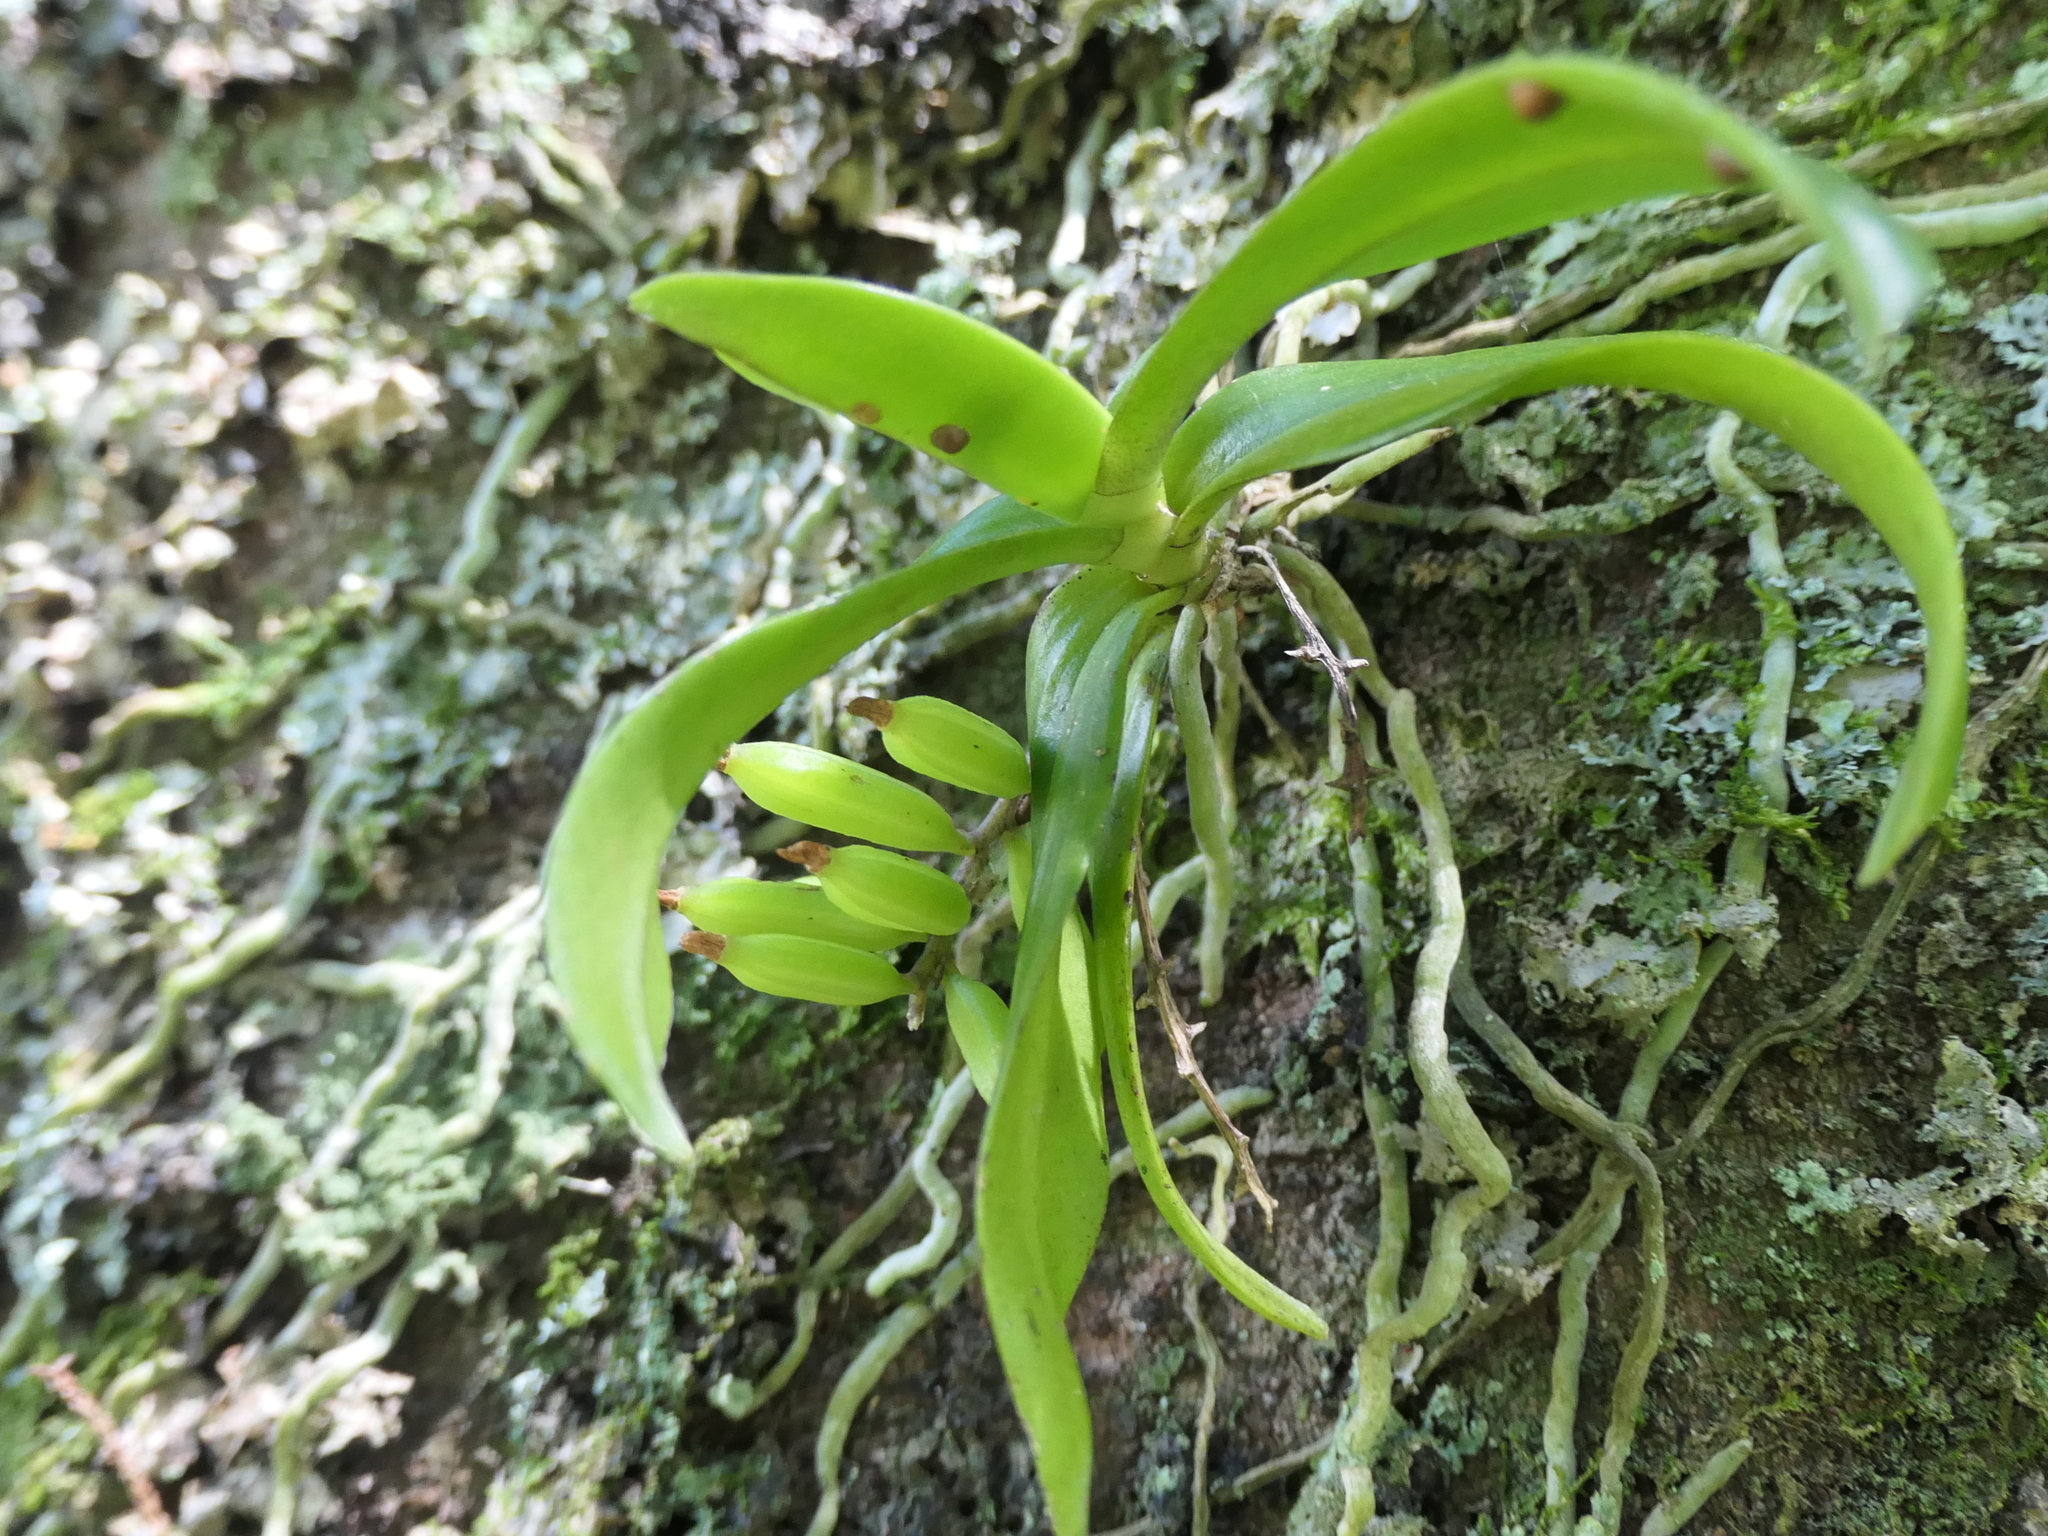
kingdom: Plantae
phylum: Tracheophyta
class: Liliopsida
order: Asparagales
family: Orchidaceae
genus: Drymoanthus
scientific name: Drymoanthus adversus
